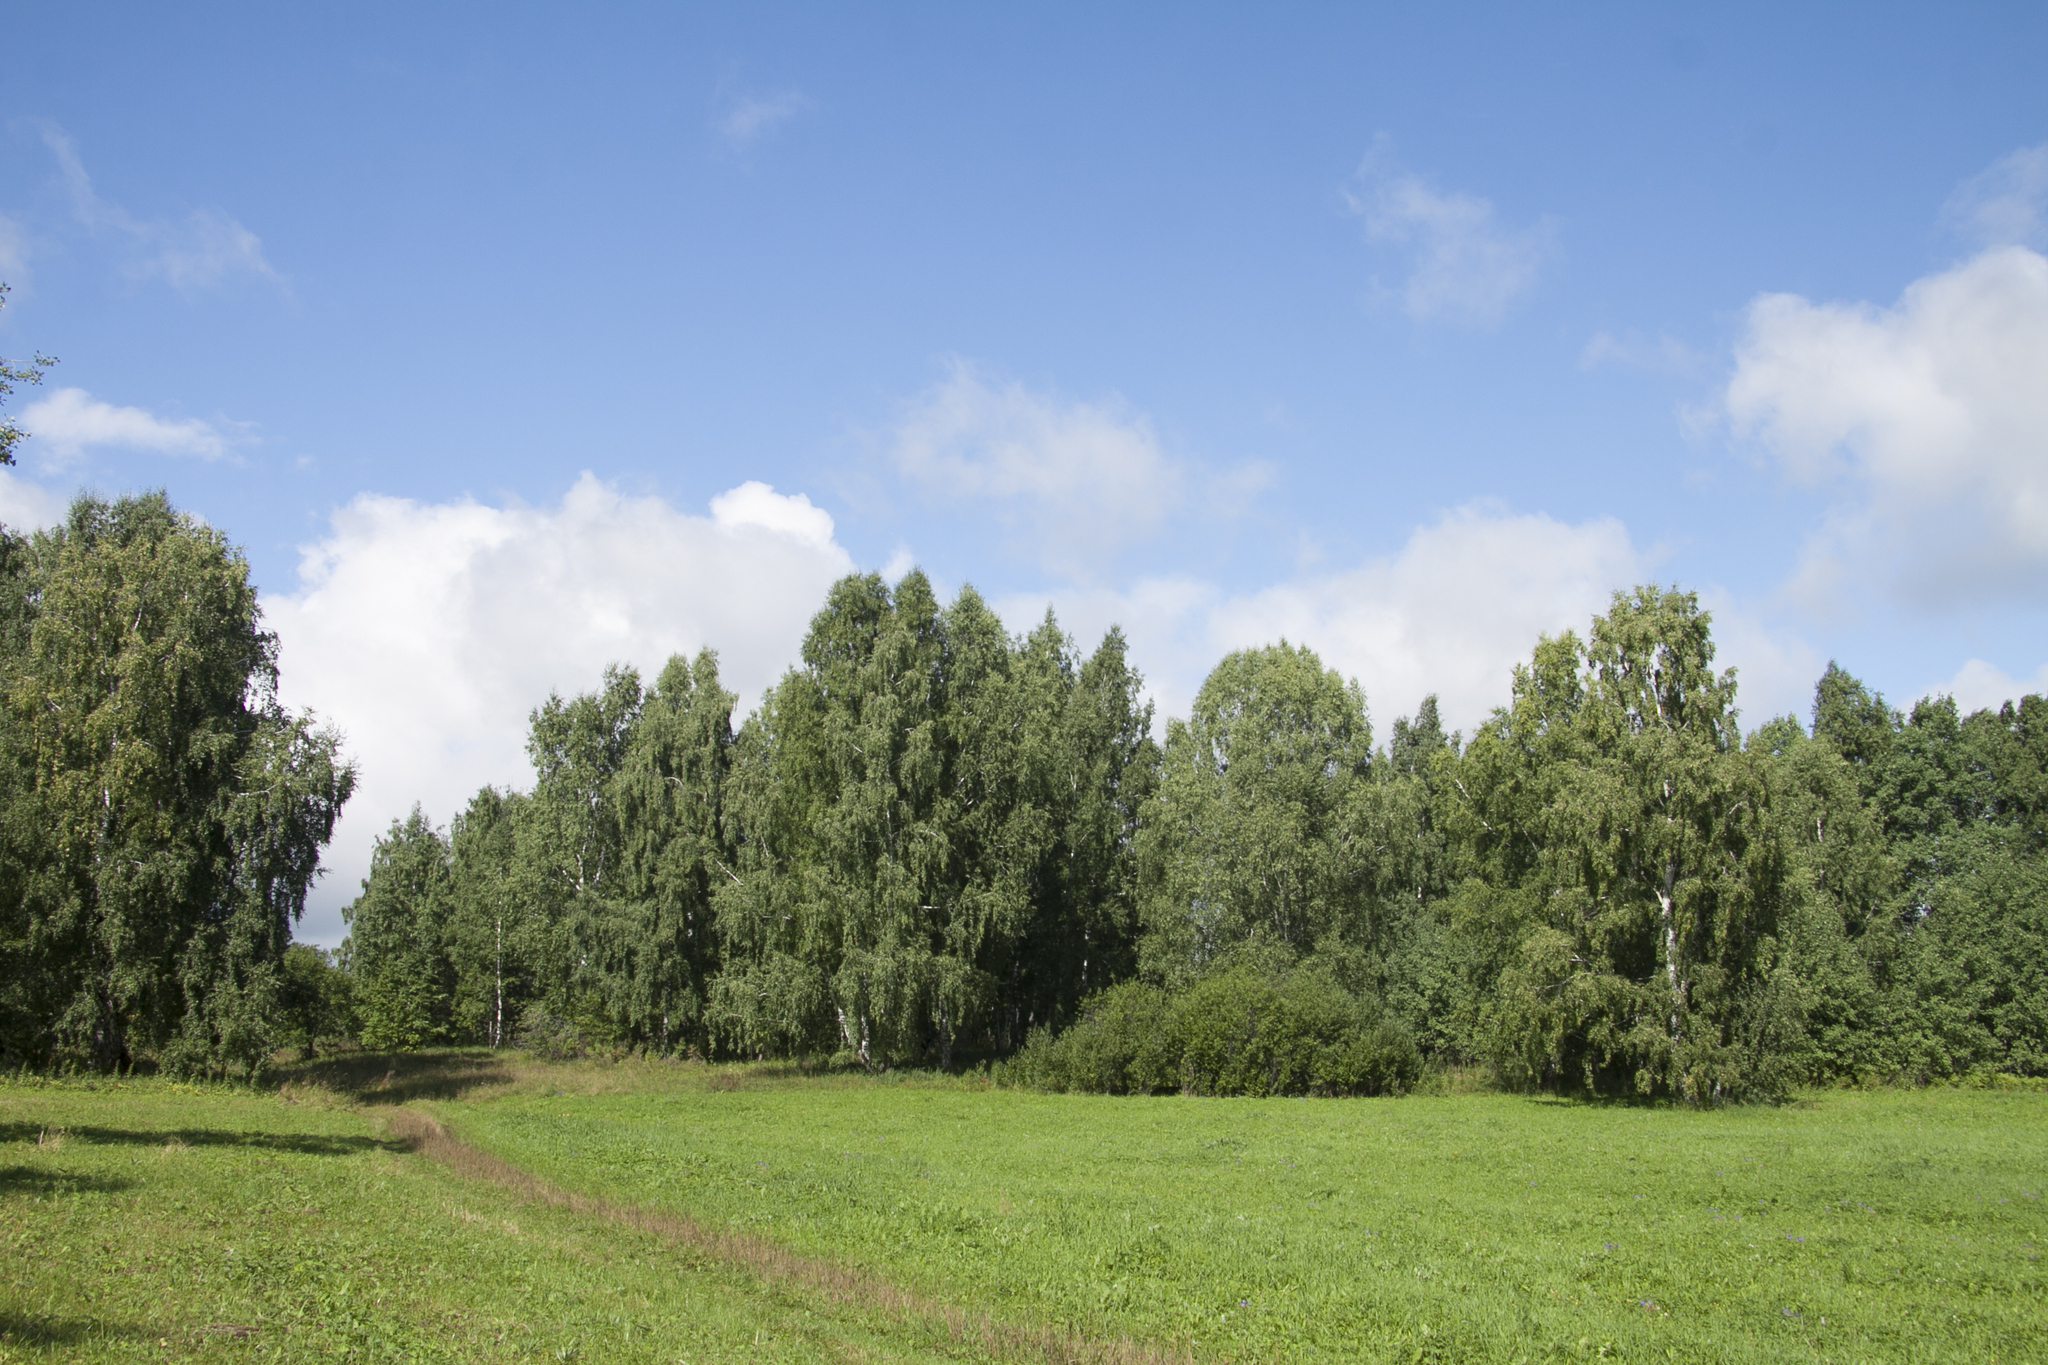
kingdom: Plantae
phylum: Tracheophyta
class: Magnoliopsida
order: Fagales
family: Betulaceae
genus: Betula
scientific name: Betula pendula
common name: Silver birch
